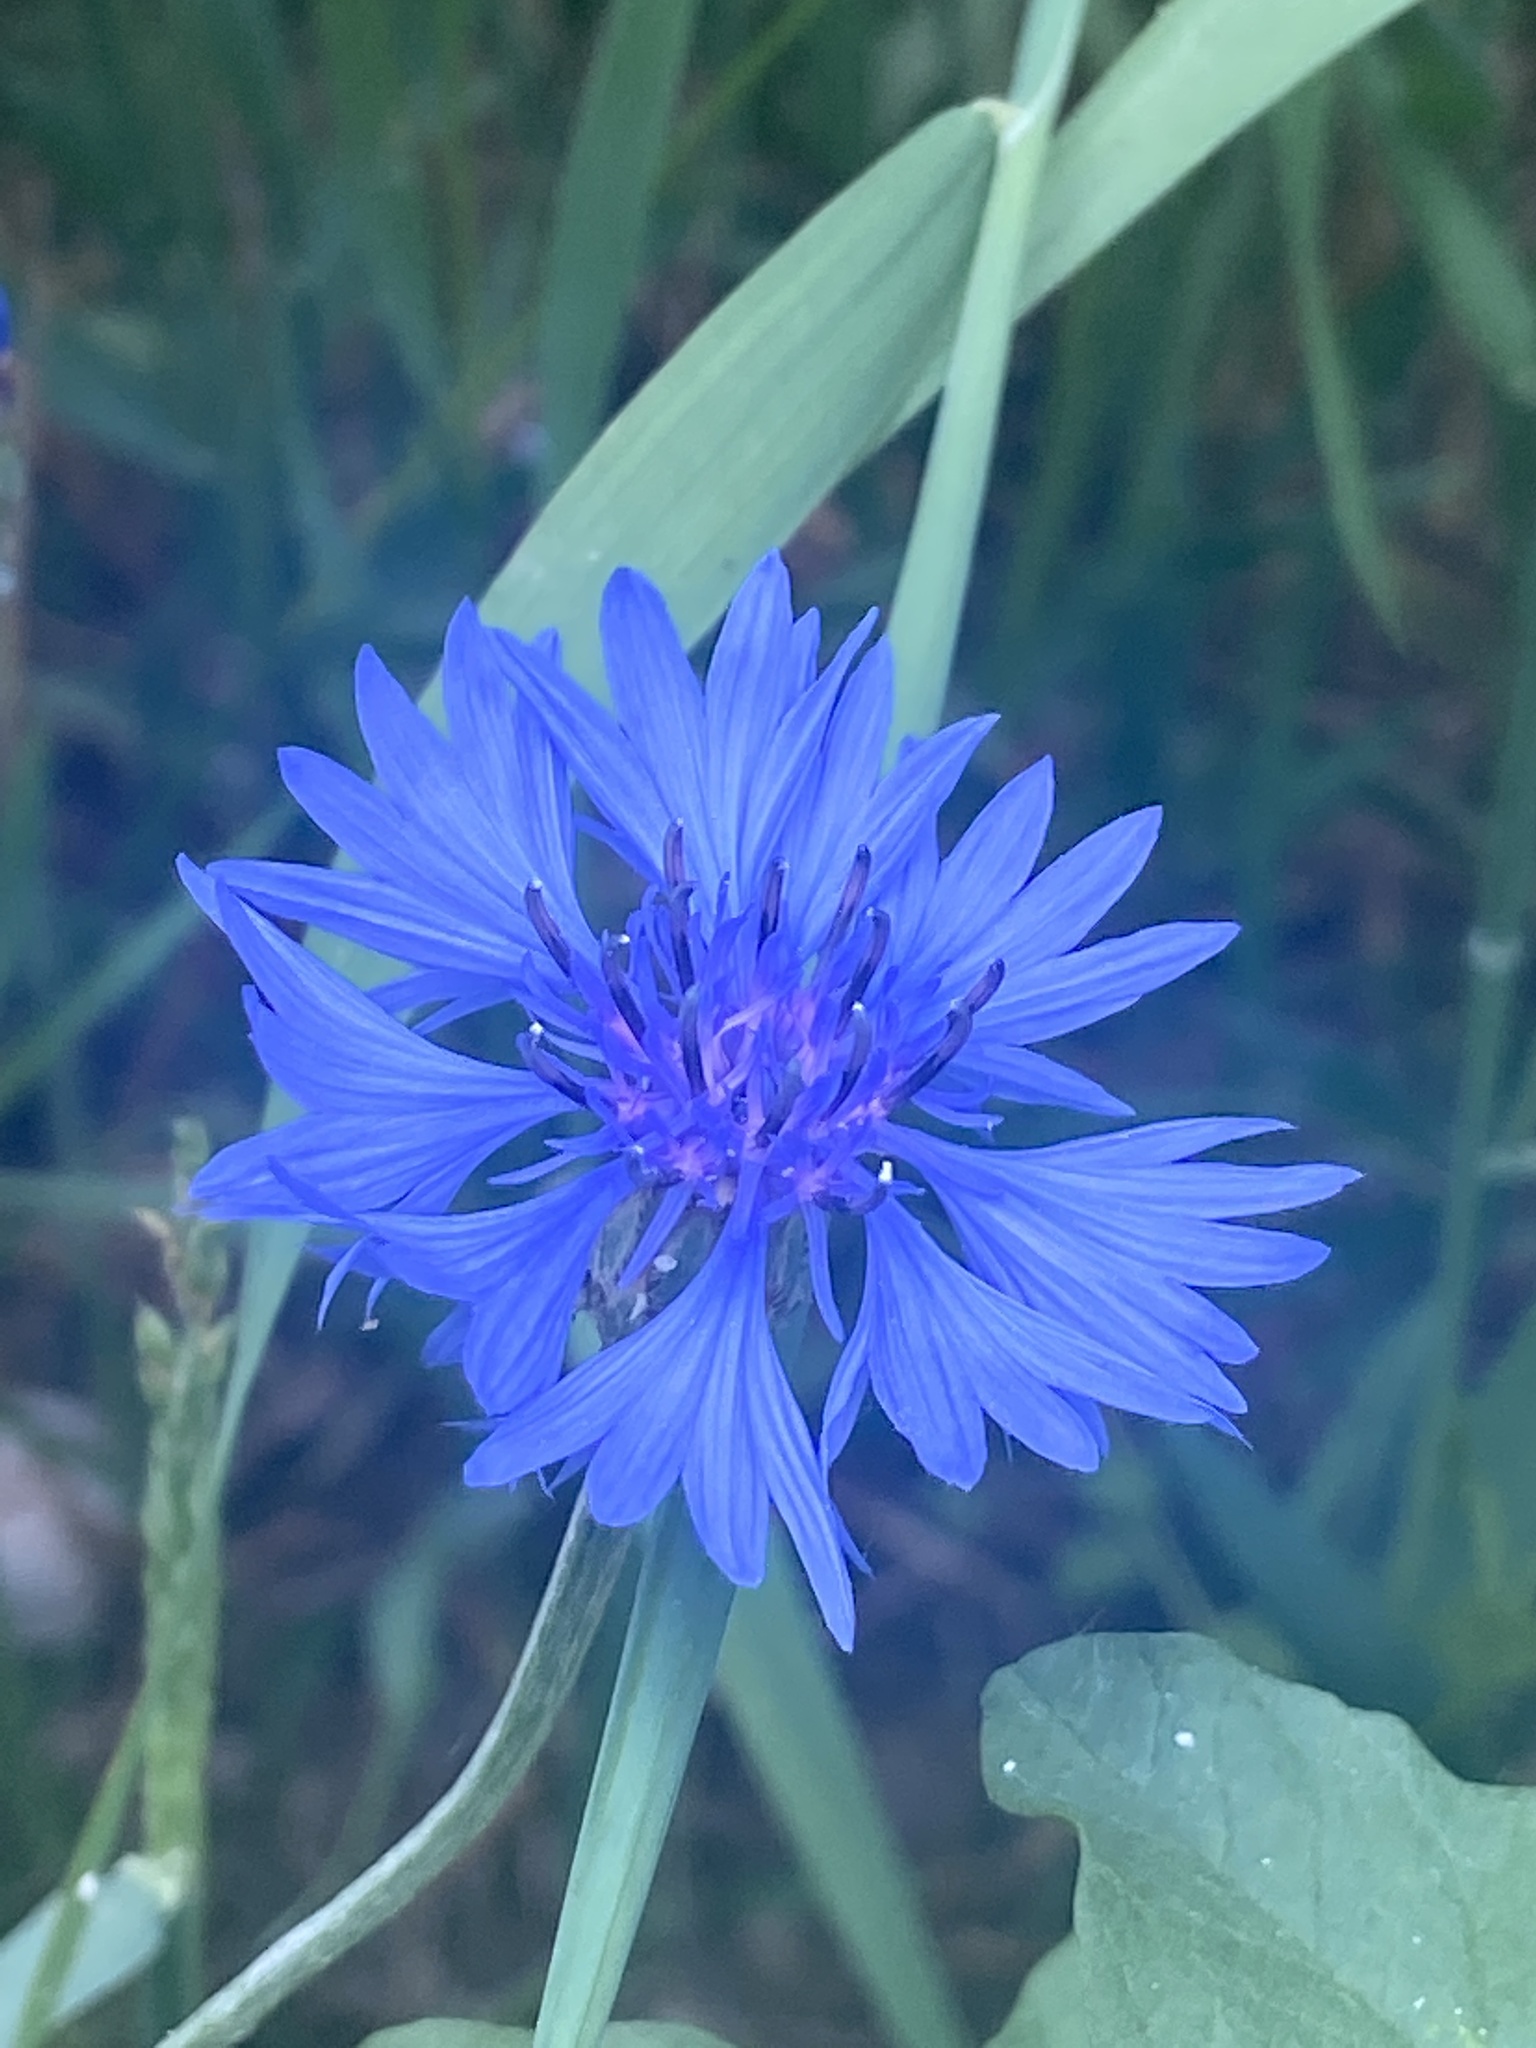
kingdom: Plantae
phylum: Tracheophyta
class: Magnoliopsida
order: Asterales
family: Asteraceae
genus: Centaurea
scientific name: Centaurea cyanus
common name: Cornflower
